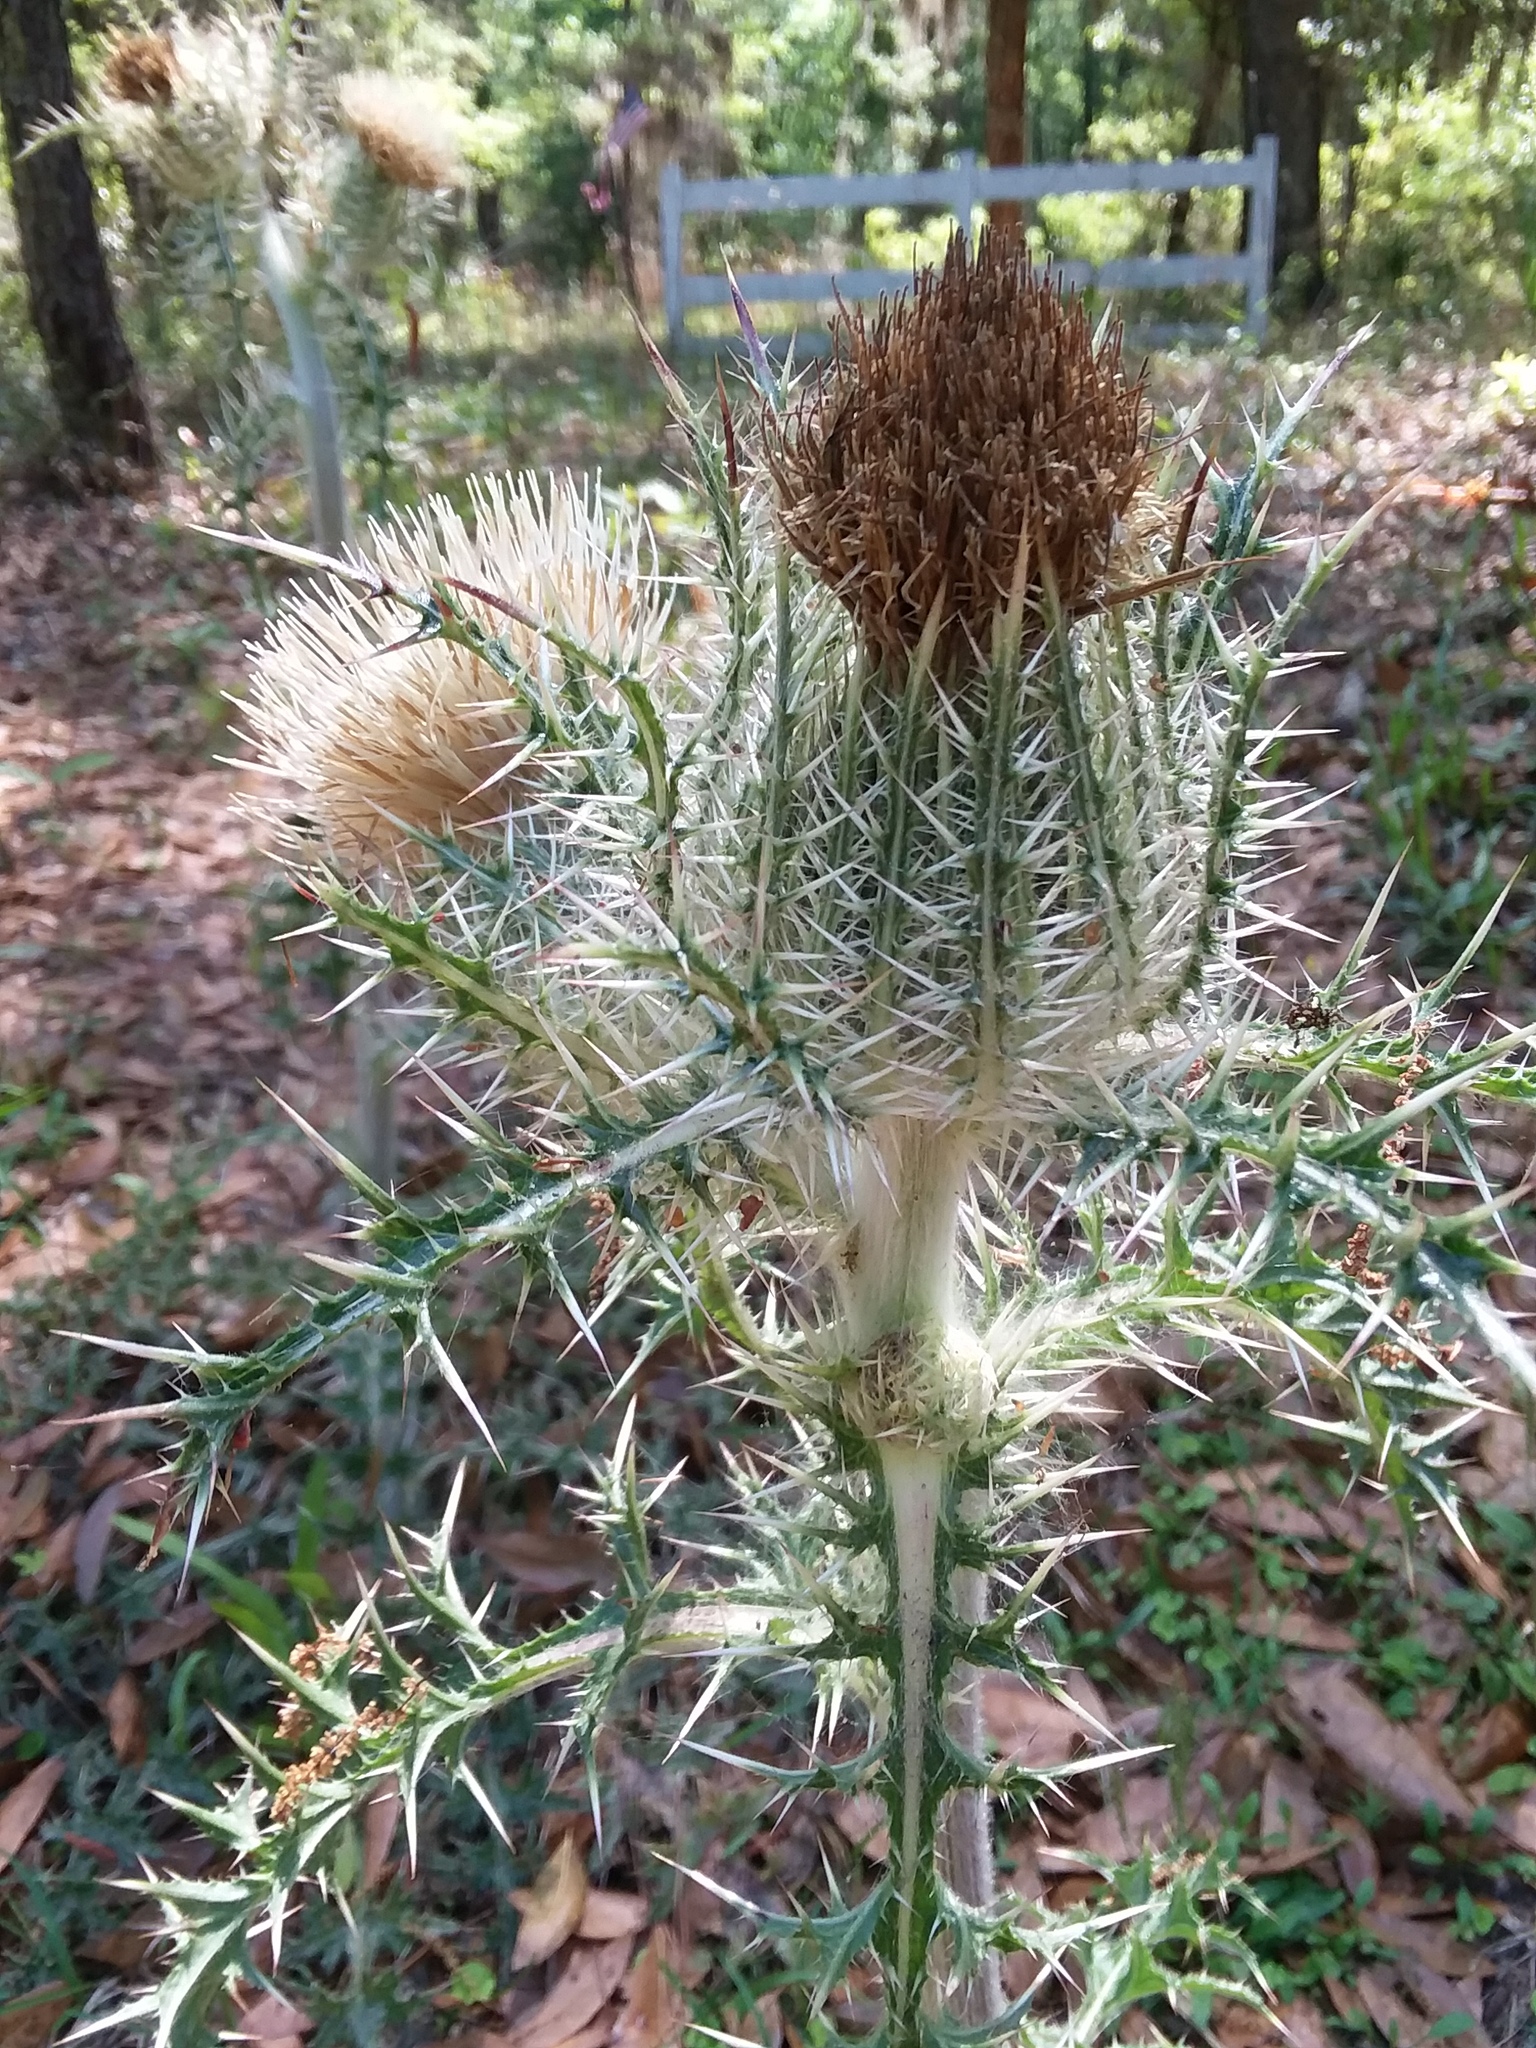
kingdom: Plantae
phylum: Tracheophyta
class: Magnoliopsida
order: Asterales
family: Asteraceae
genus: Cirsium
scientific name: Cirsium horridulum
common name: Bristly thistle
